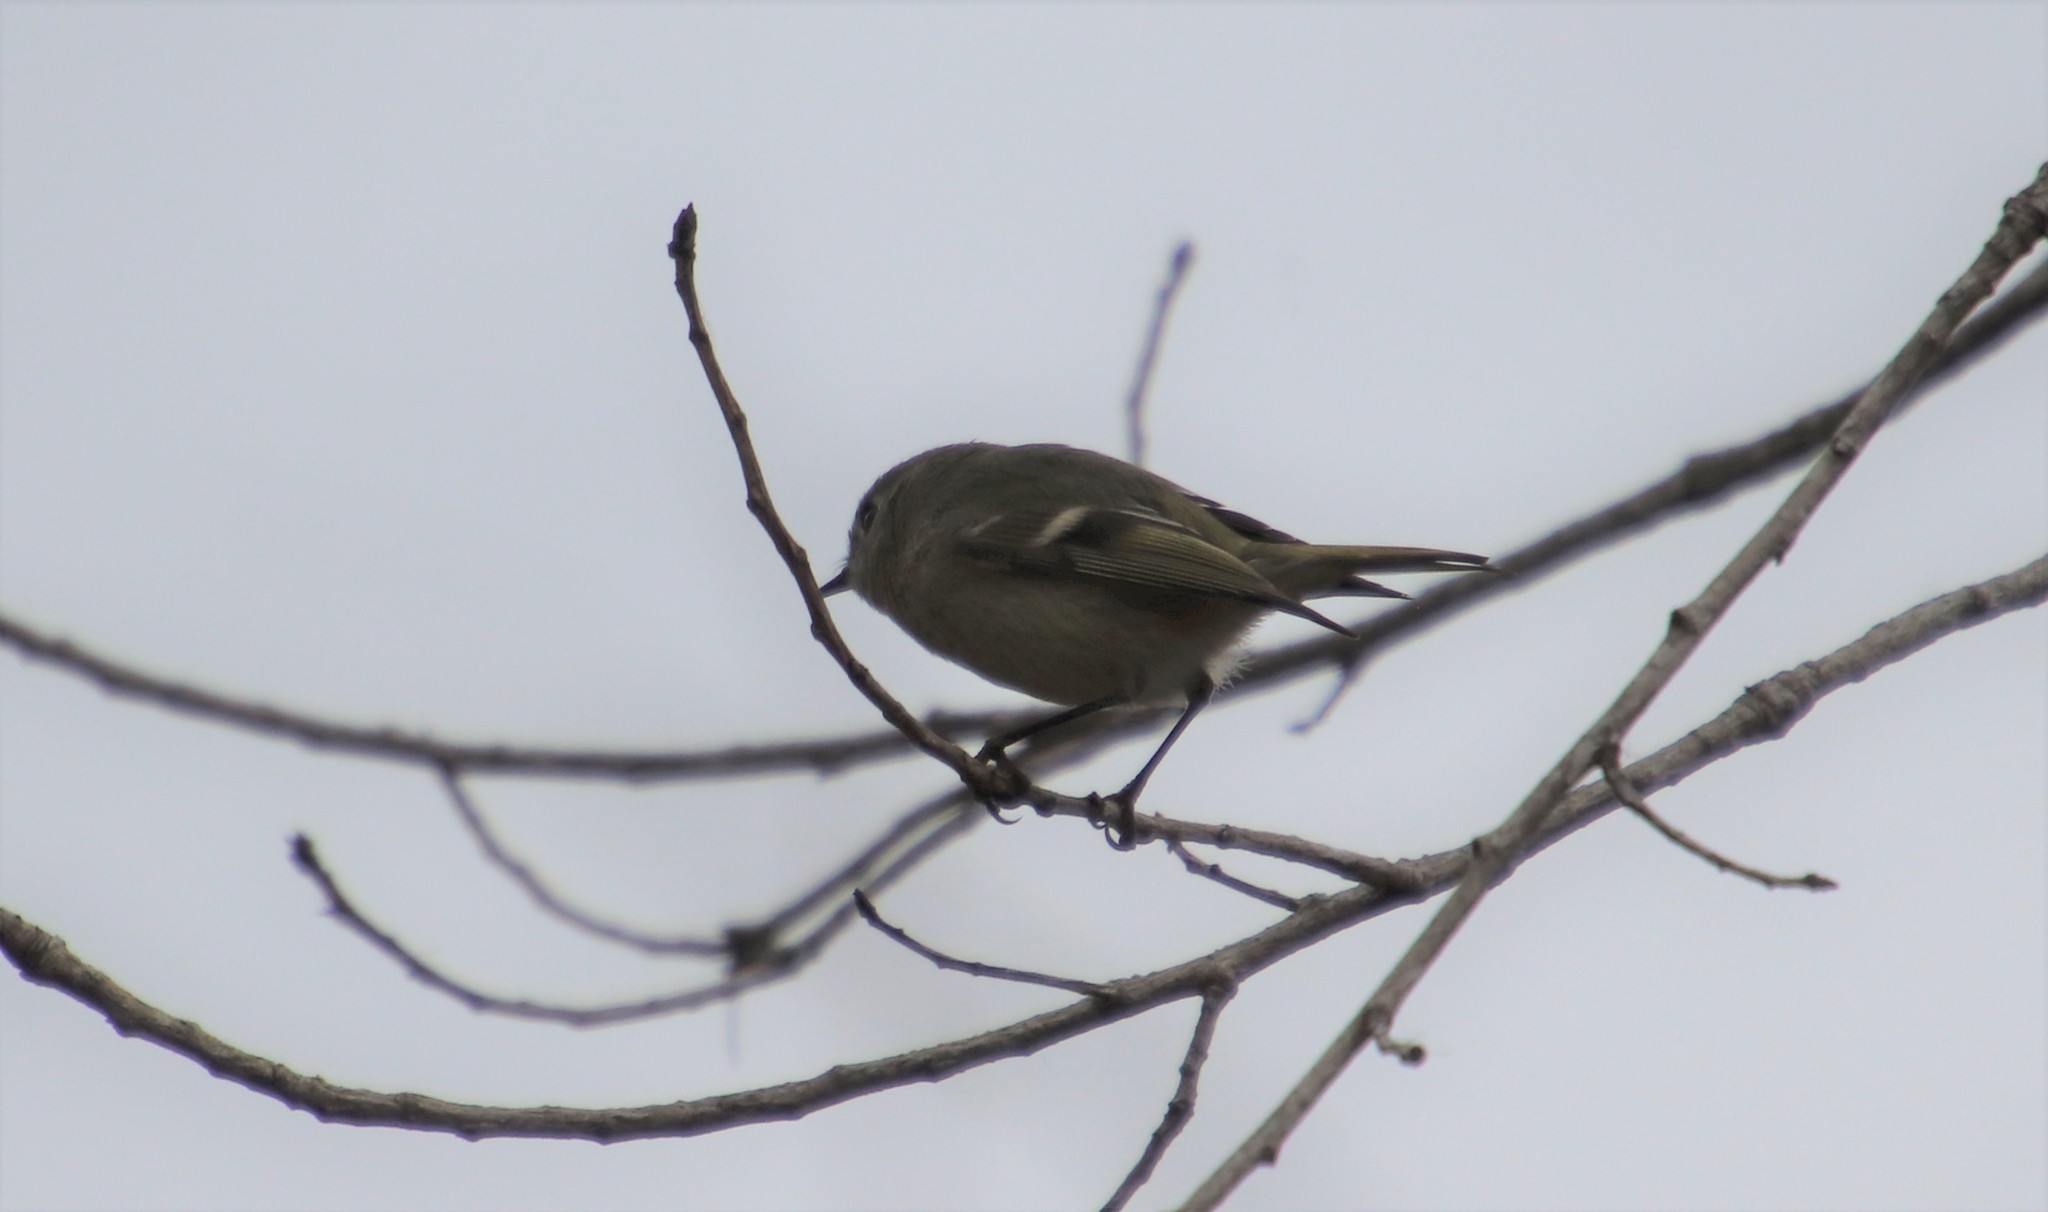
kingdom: Animalia
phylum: Chordata
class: Aves
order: Passeriformes
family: Regulidae
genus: Regulus
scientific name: Regulus calendula
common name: Ruby-crowned kinglet
